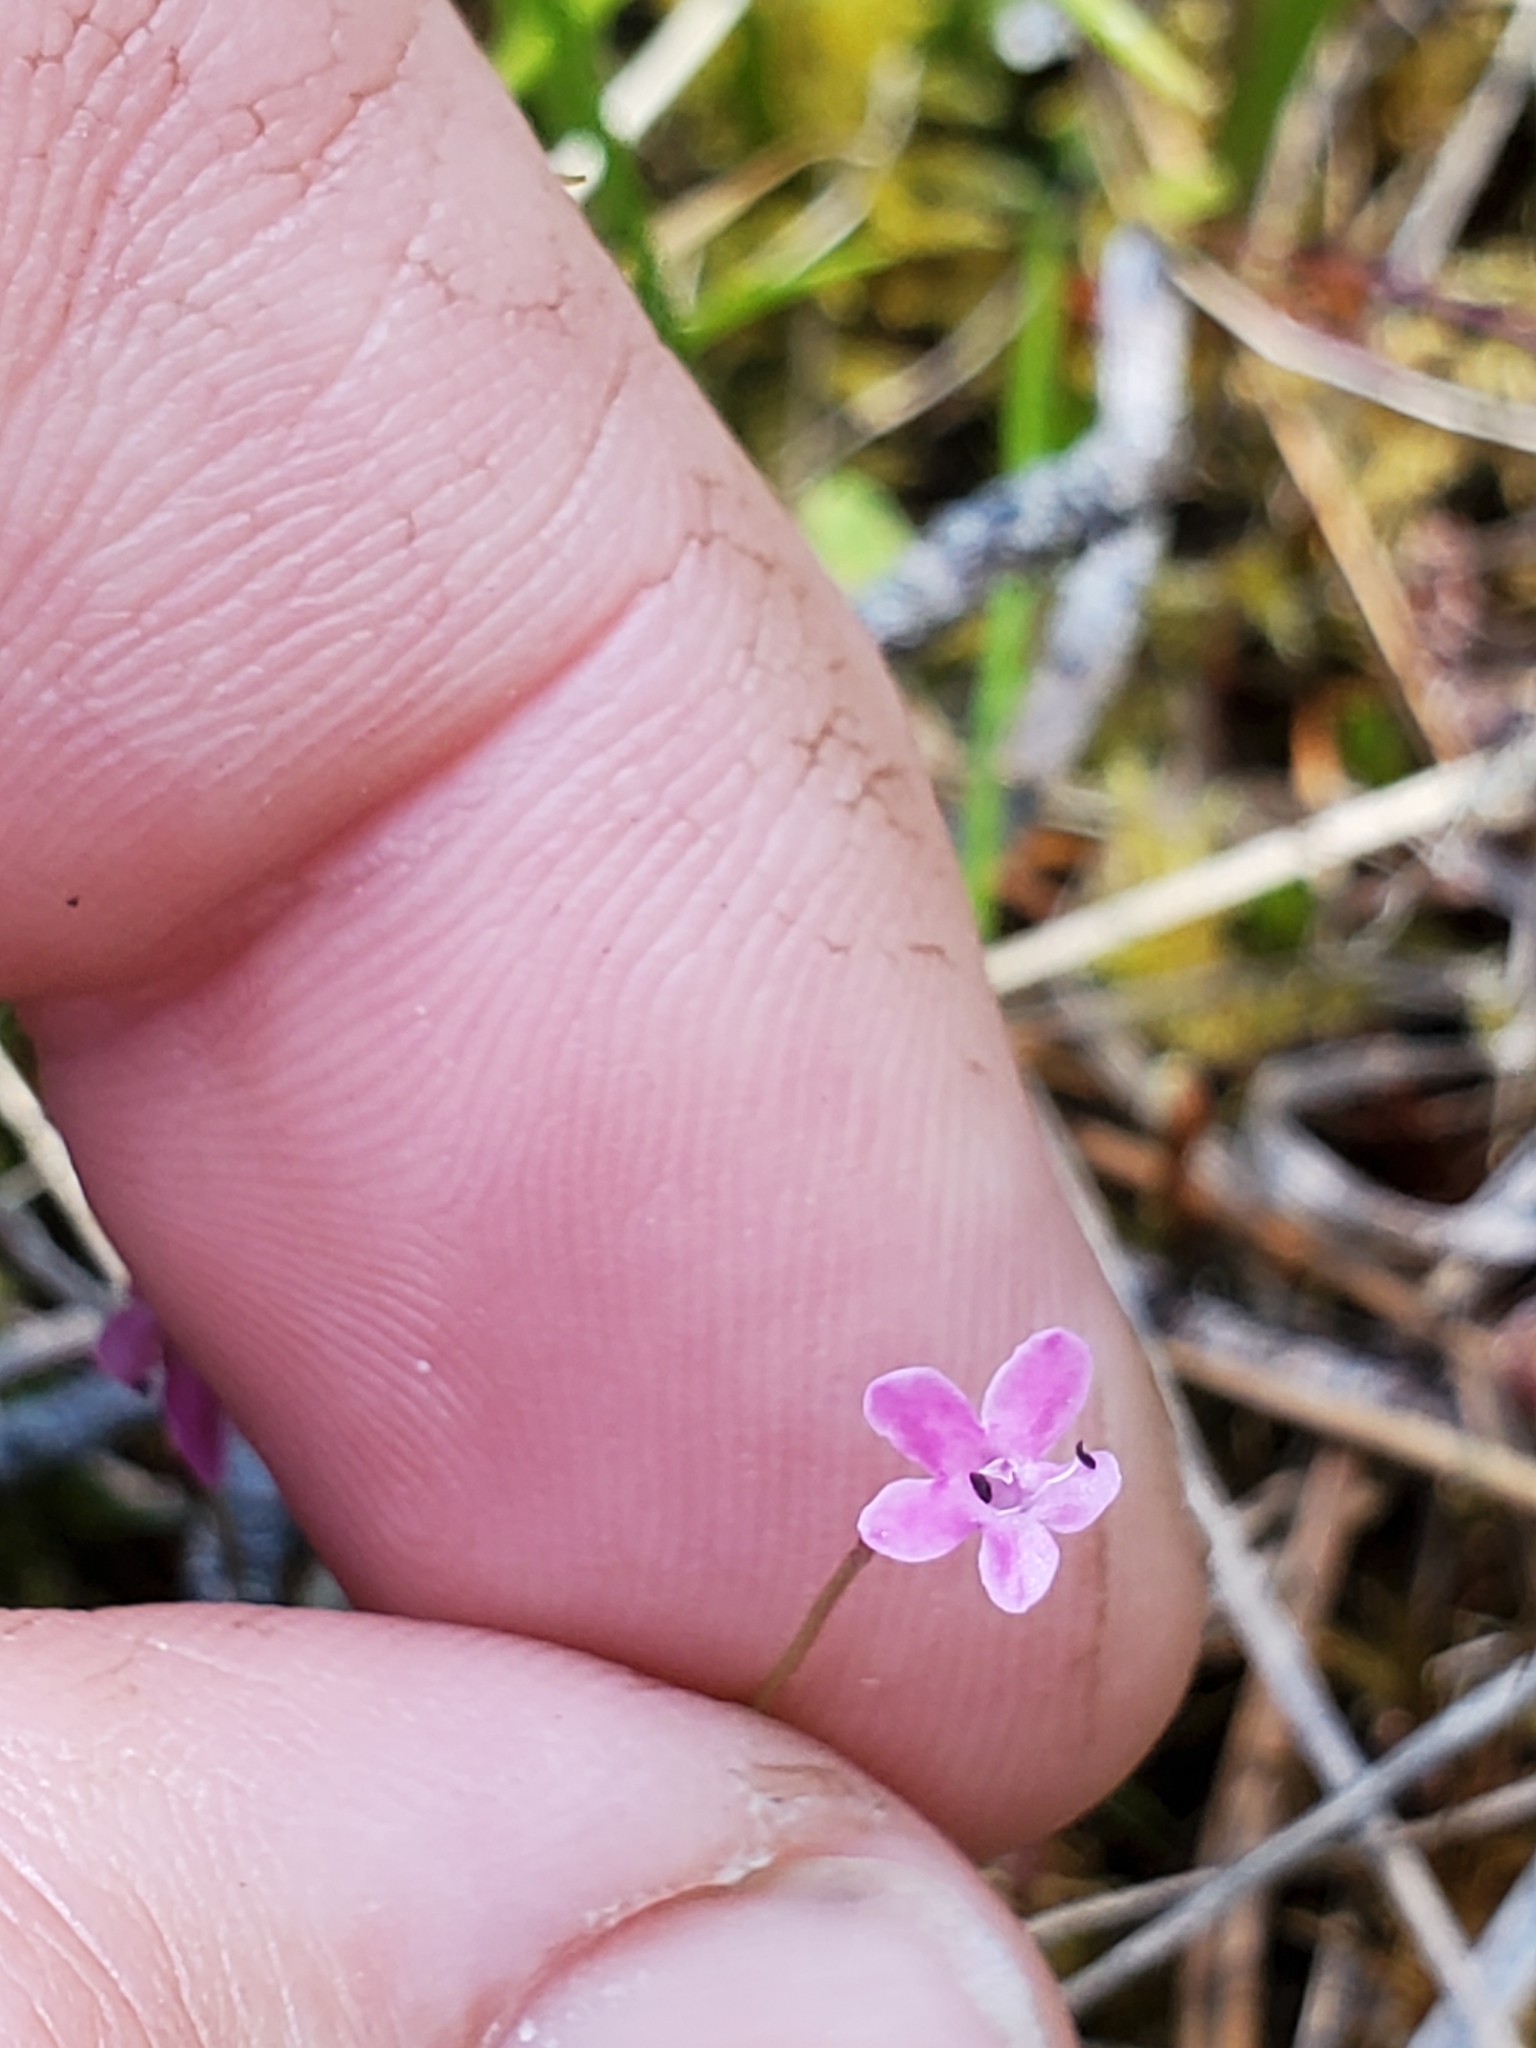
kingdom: Plantae
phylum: Tracheophyta
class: Magnoliopsida
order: Dipsacales
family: Caprifoliaceae
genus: Plectritis
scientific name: Plectritis congesta
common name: Pink plectritis
